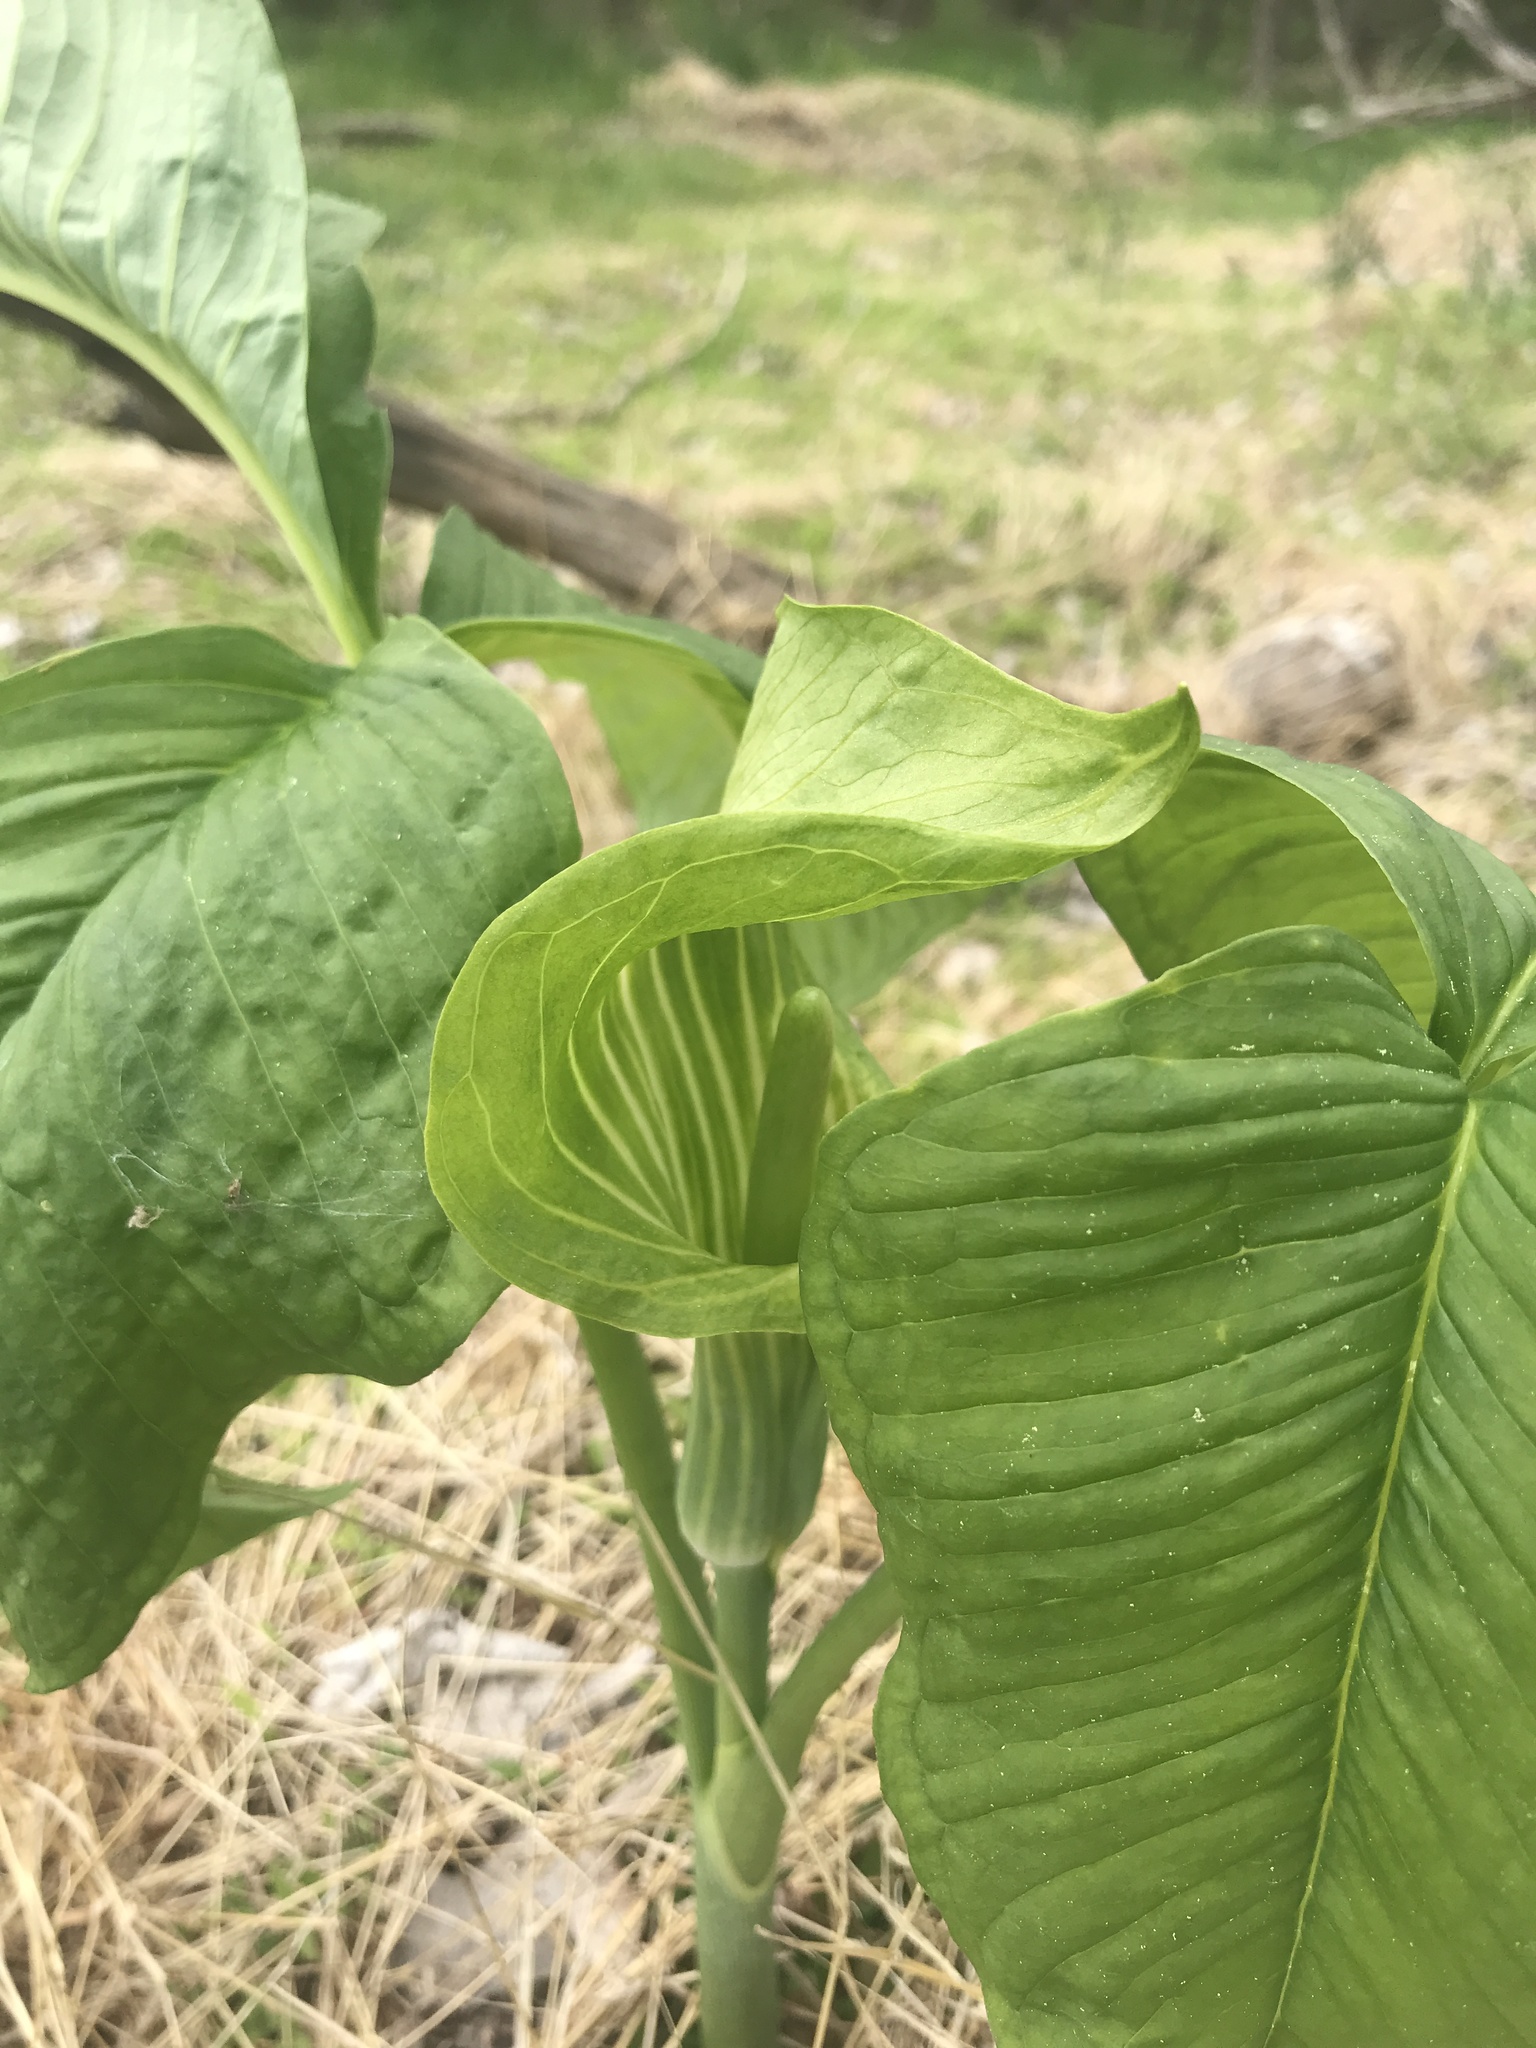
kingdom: Plantae
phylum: Tracheophyta
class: Liliopsida
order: Alismatales
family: Araceae
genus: Arisaema
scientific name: Arisaema triphyllum
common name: Jack-in-the-pulpit
